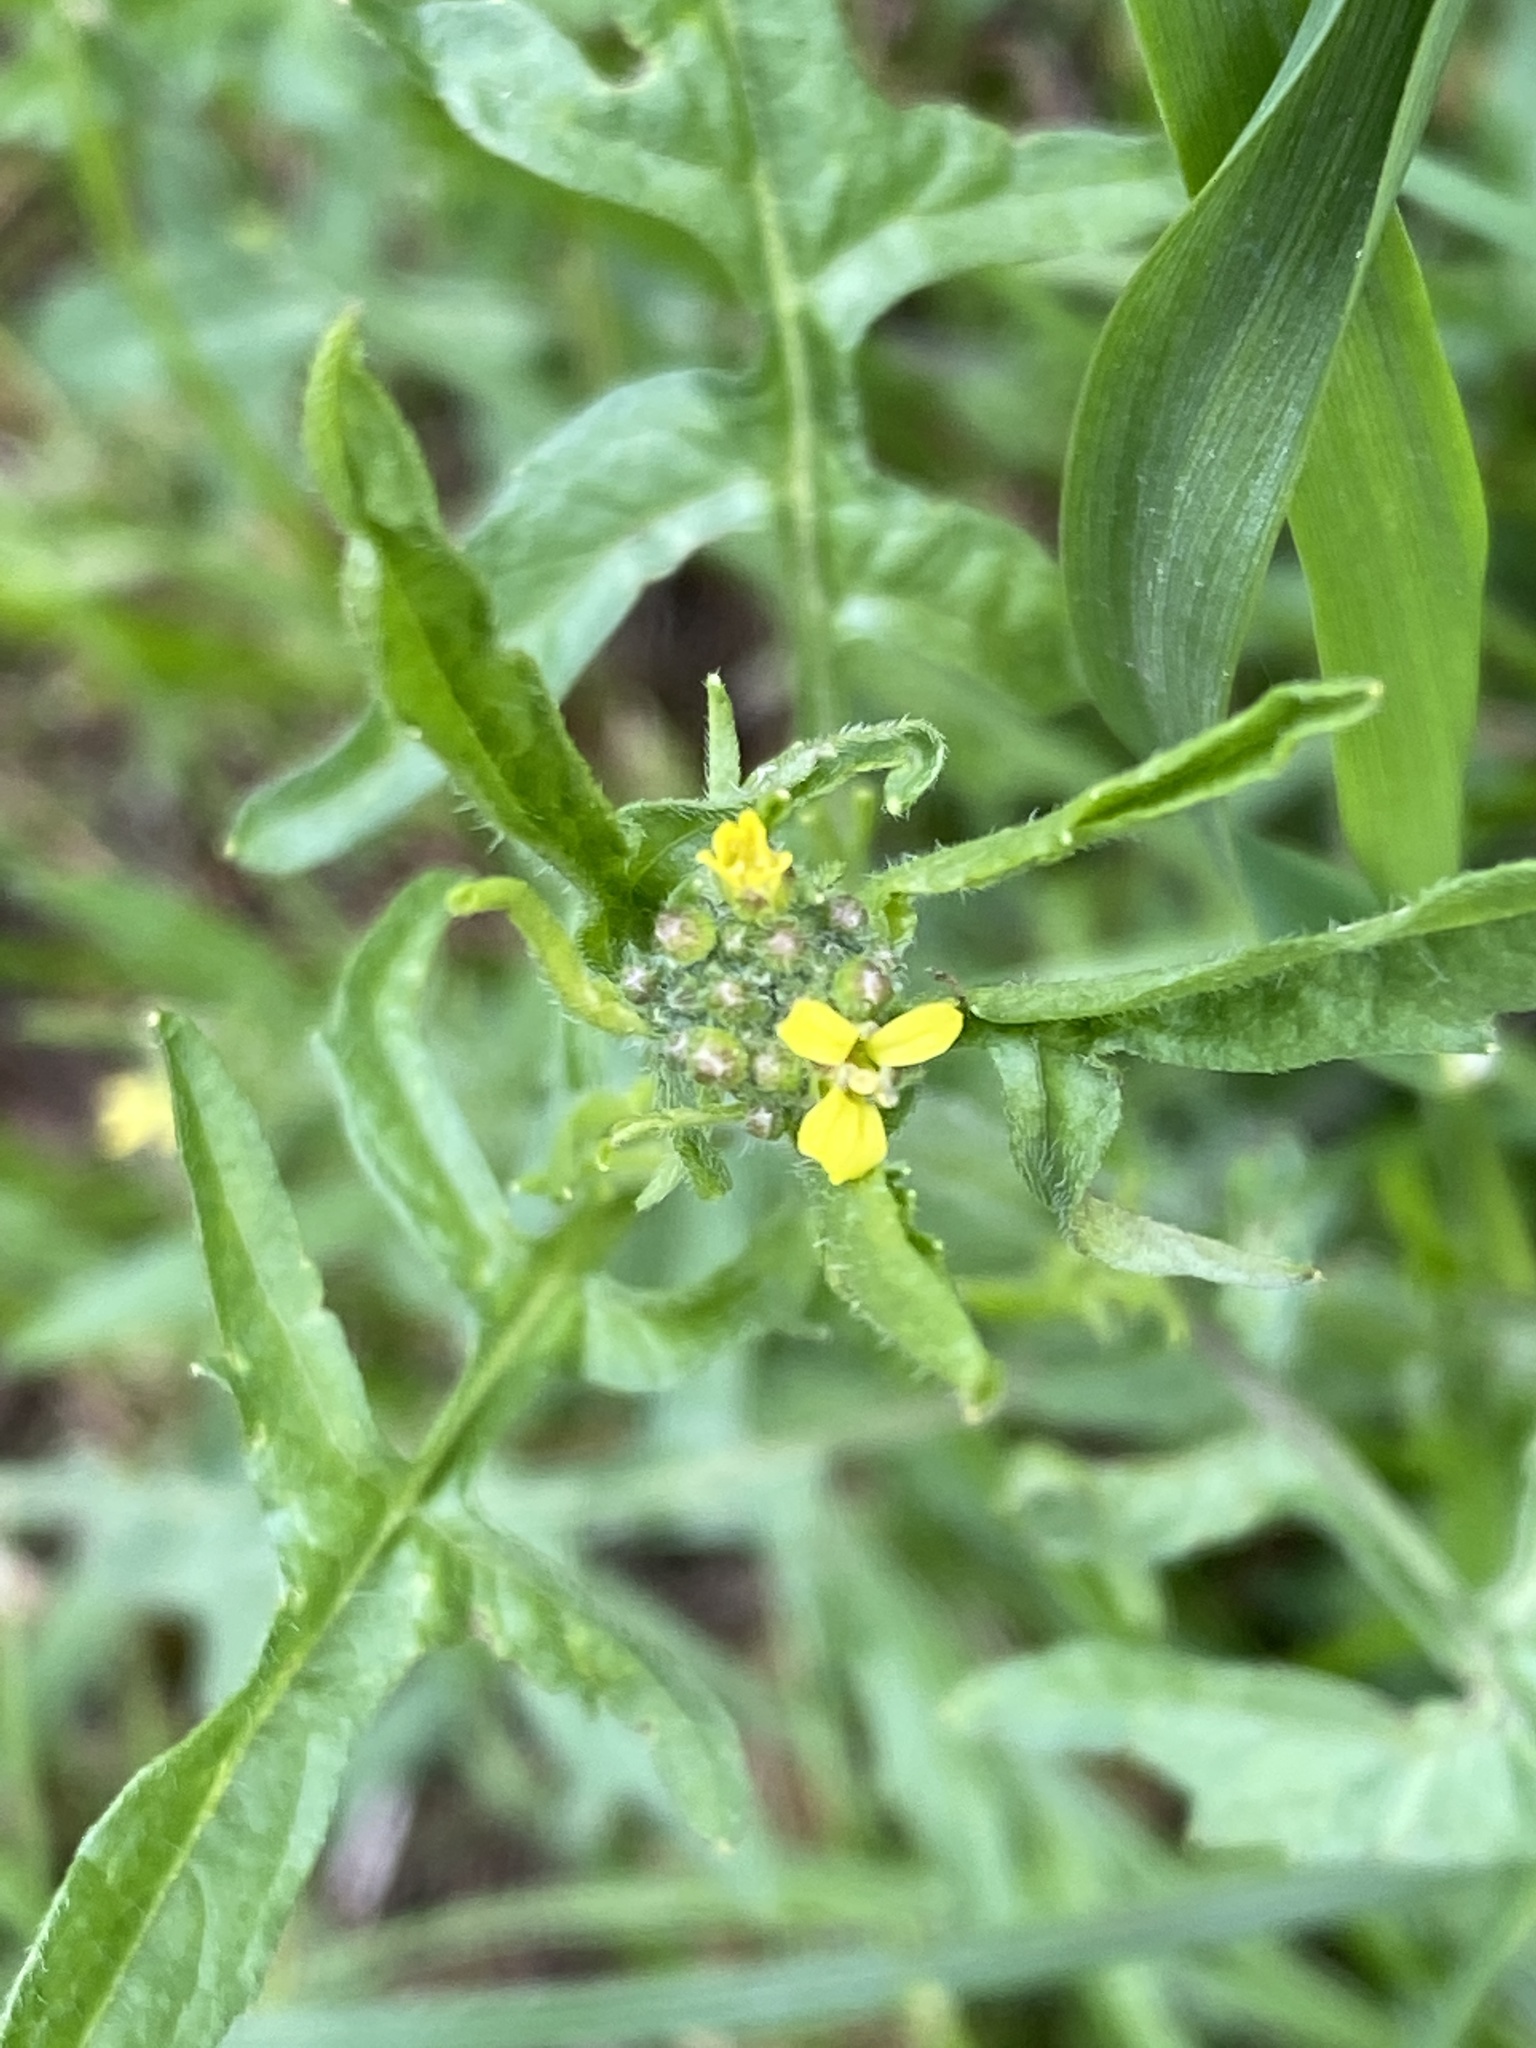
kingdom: Plantae
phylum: Tracheophyta
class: Magnoliopsida
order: Brassicales
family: Brassicaceae
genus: Sisymbrium
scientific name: Sisymbrium officinale
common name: Hedge mustard
